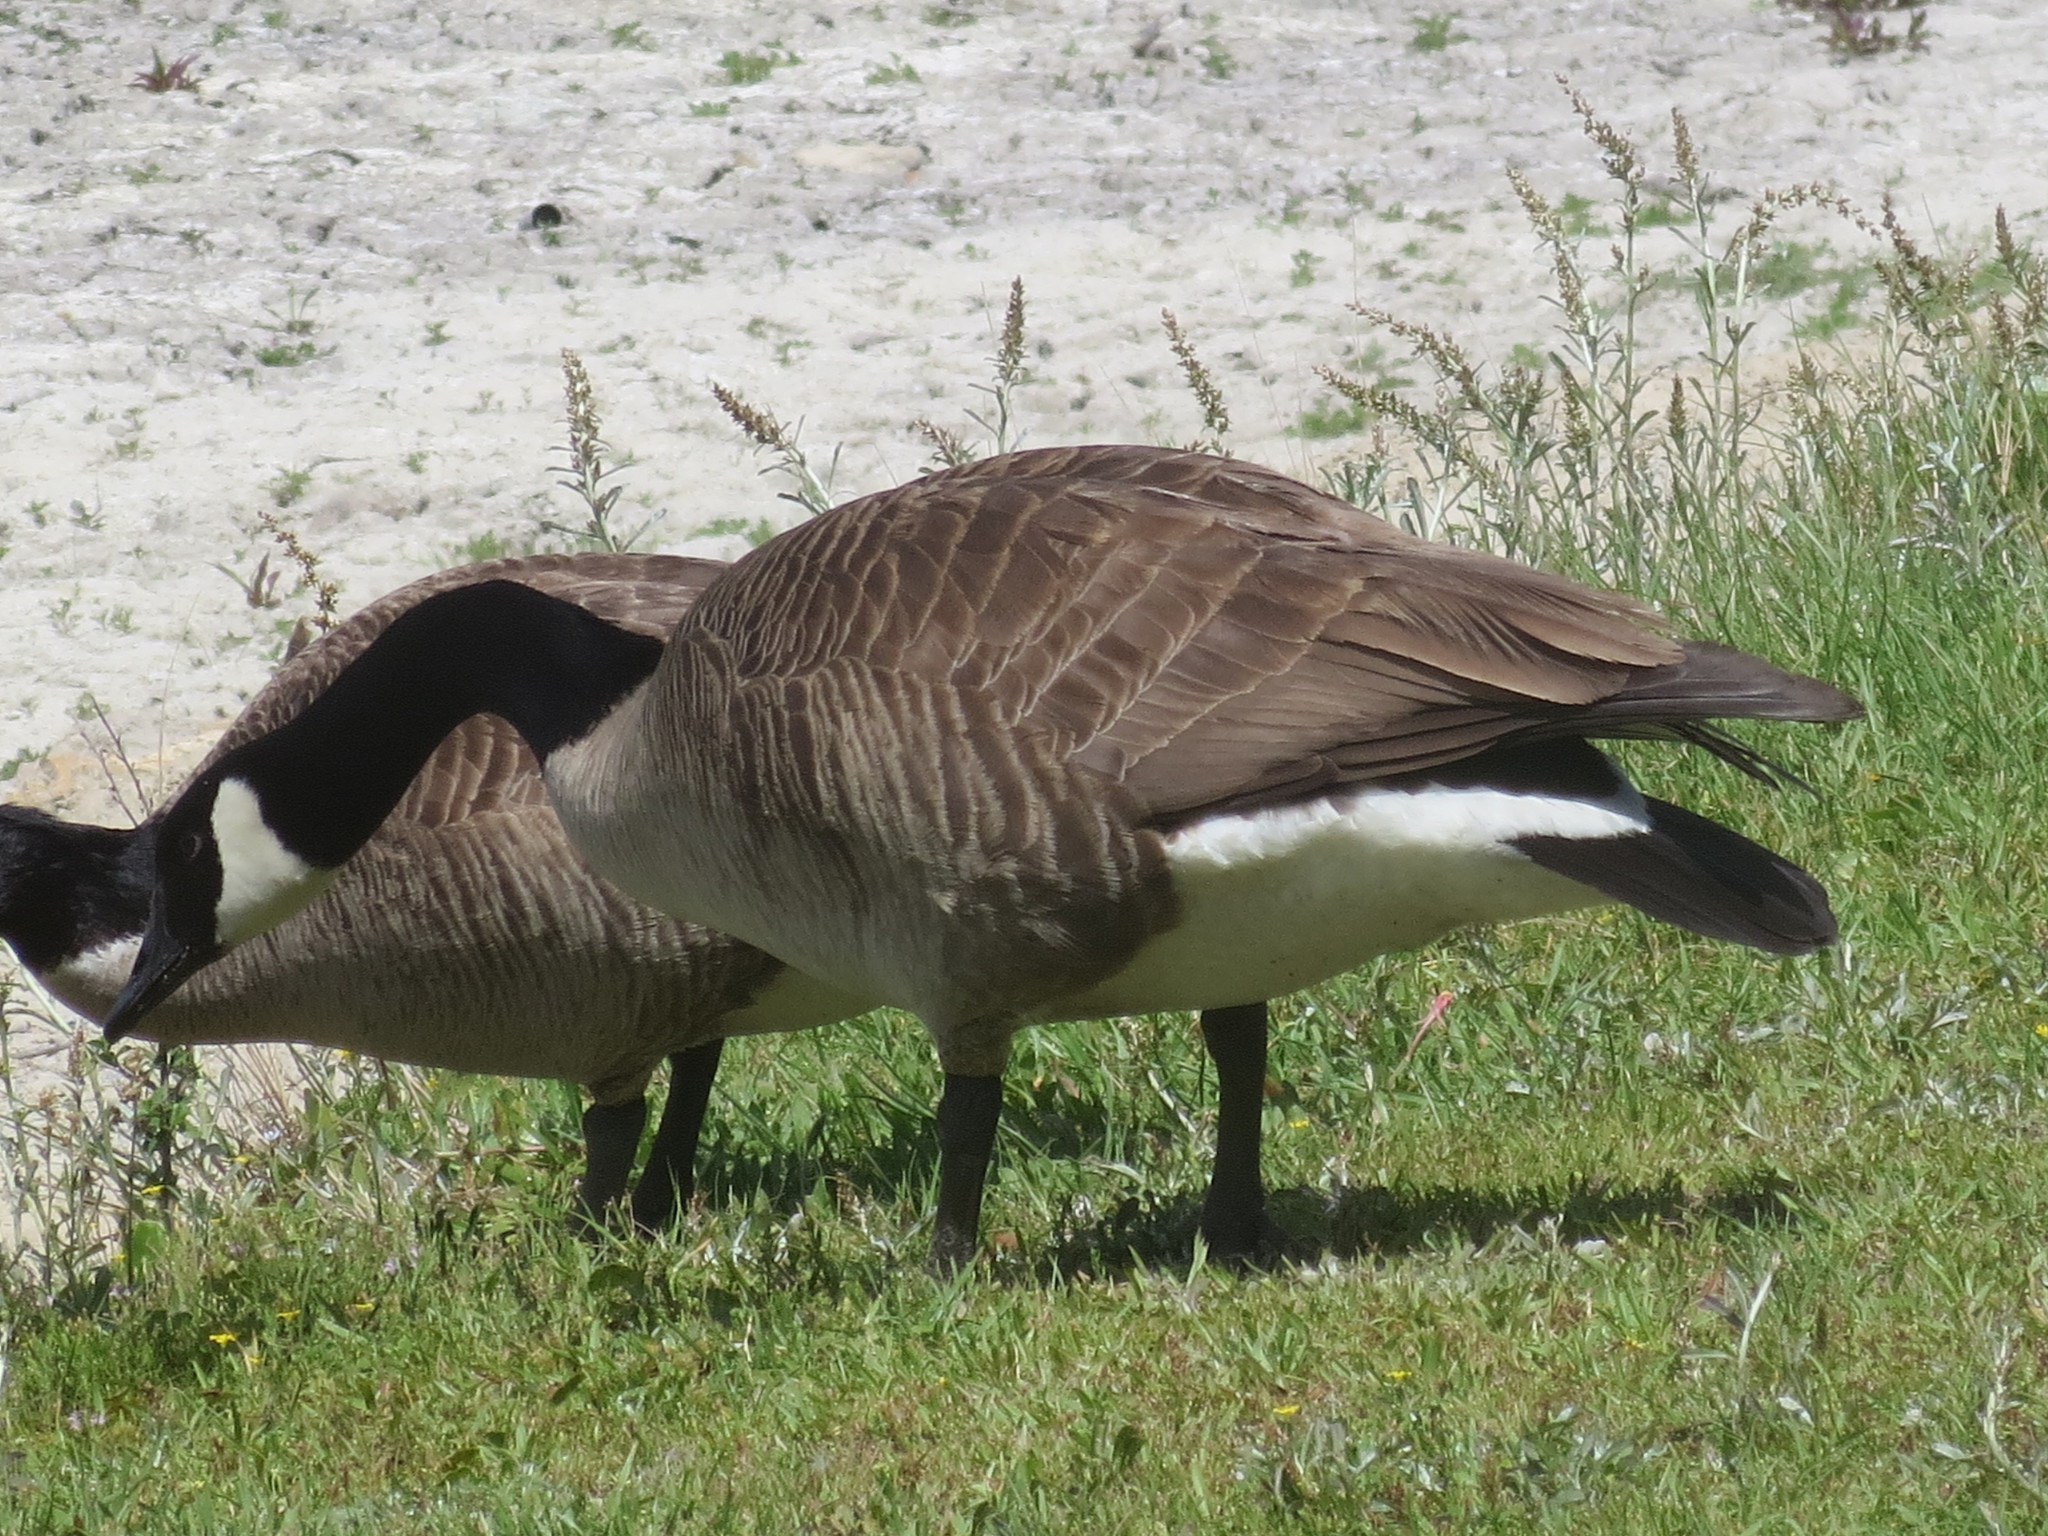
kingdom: Animalia
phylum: Chordata
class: Aves
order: Anseriformes
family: Anatidae
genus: Branta
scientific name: Branta canadensis
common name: Canada goose
